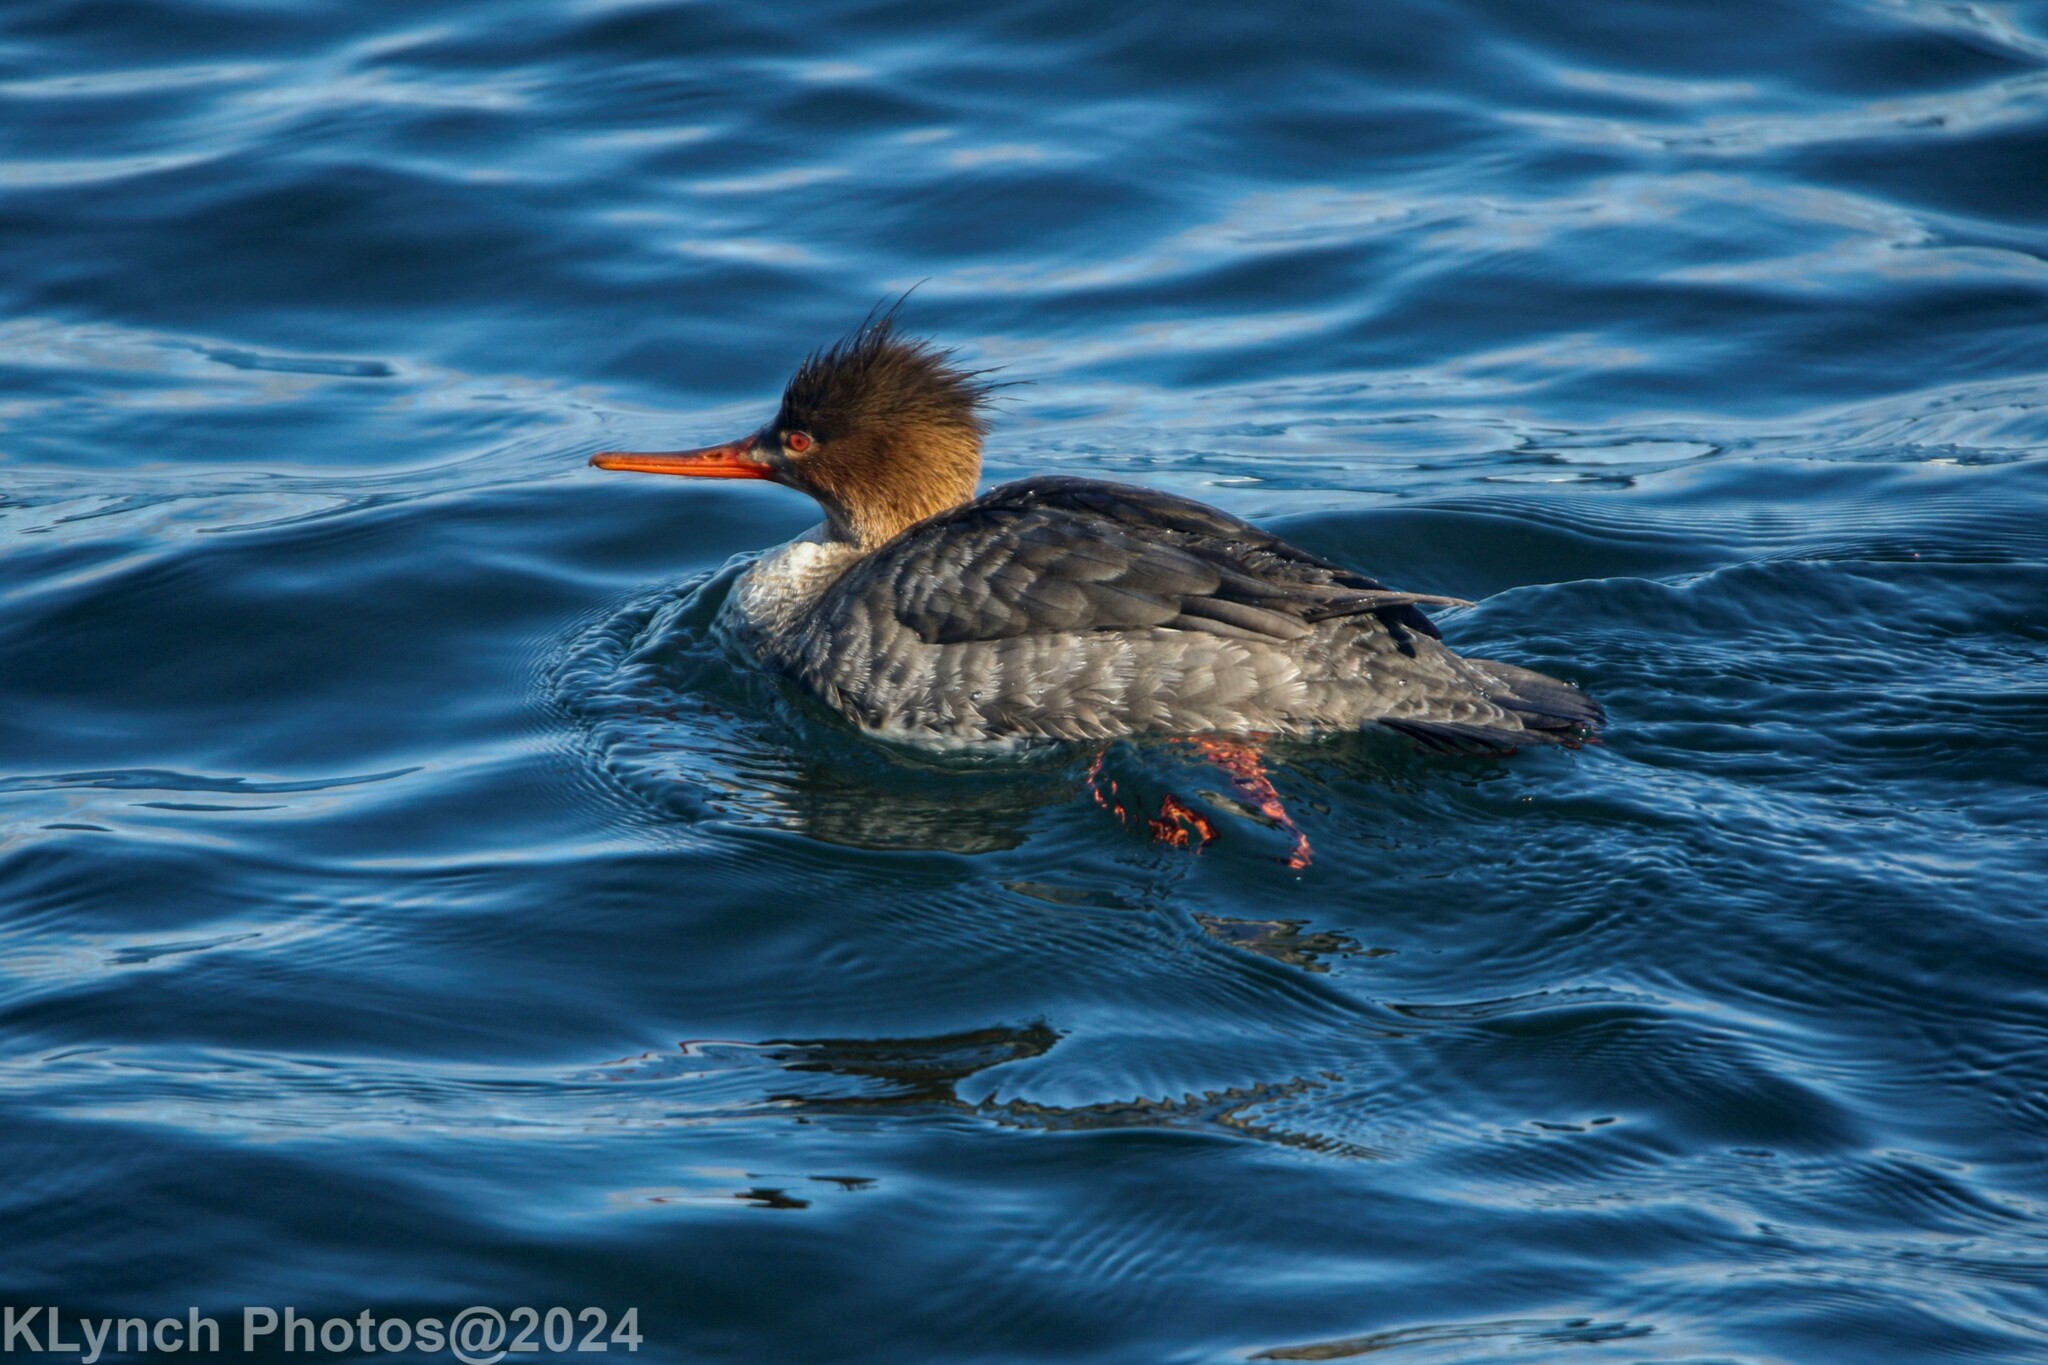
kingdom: Animalia
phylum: Chordata
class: Aves
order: Anseriformes
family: Anatidae
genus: Mergus
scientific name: Mergus serrator
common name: Red-breasted merganser
